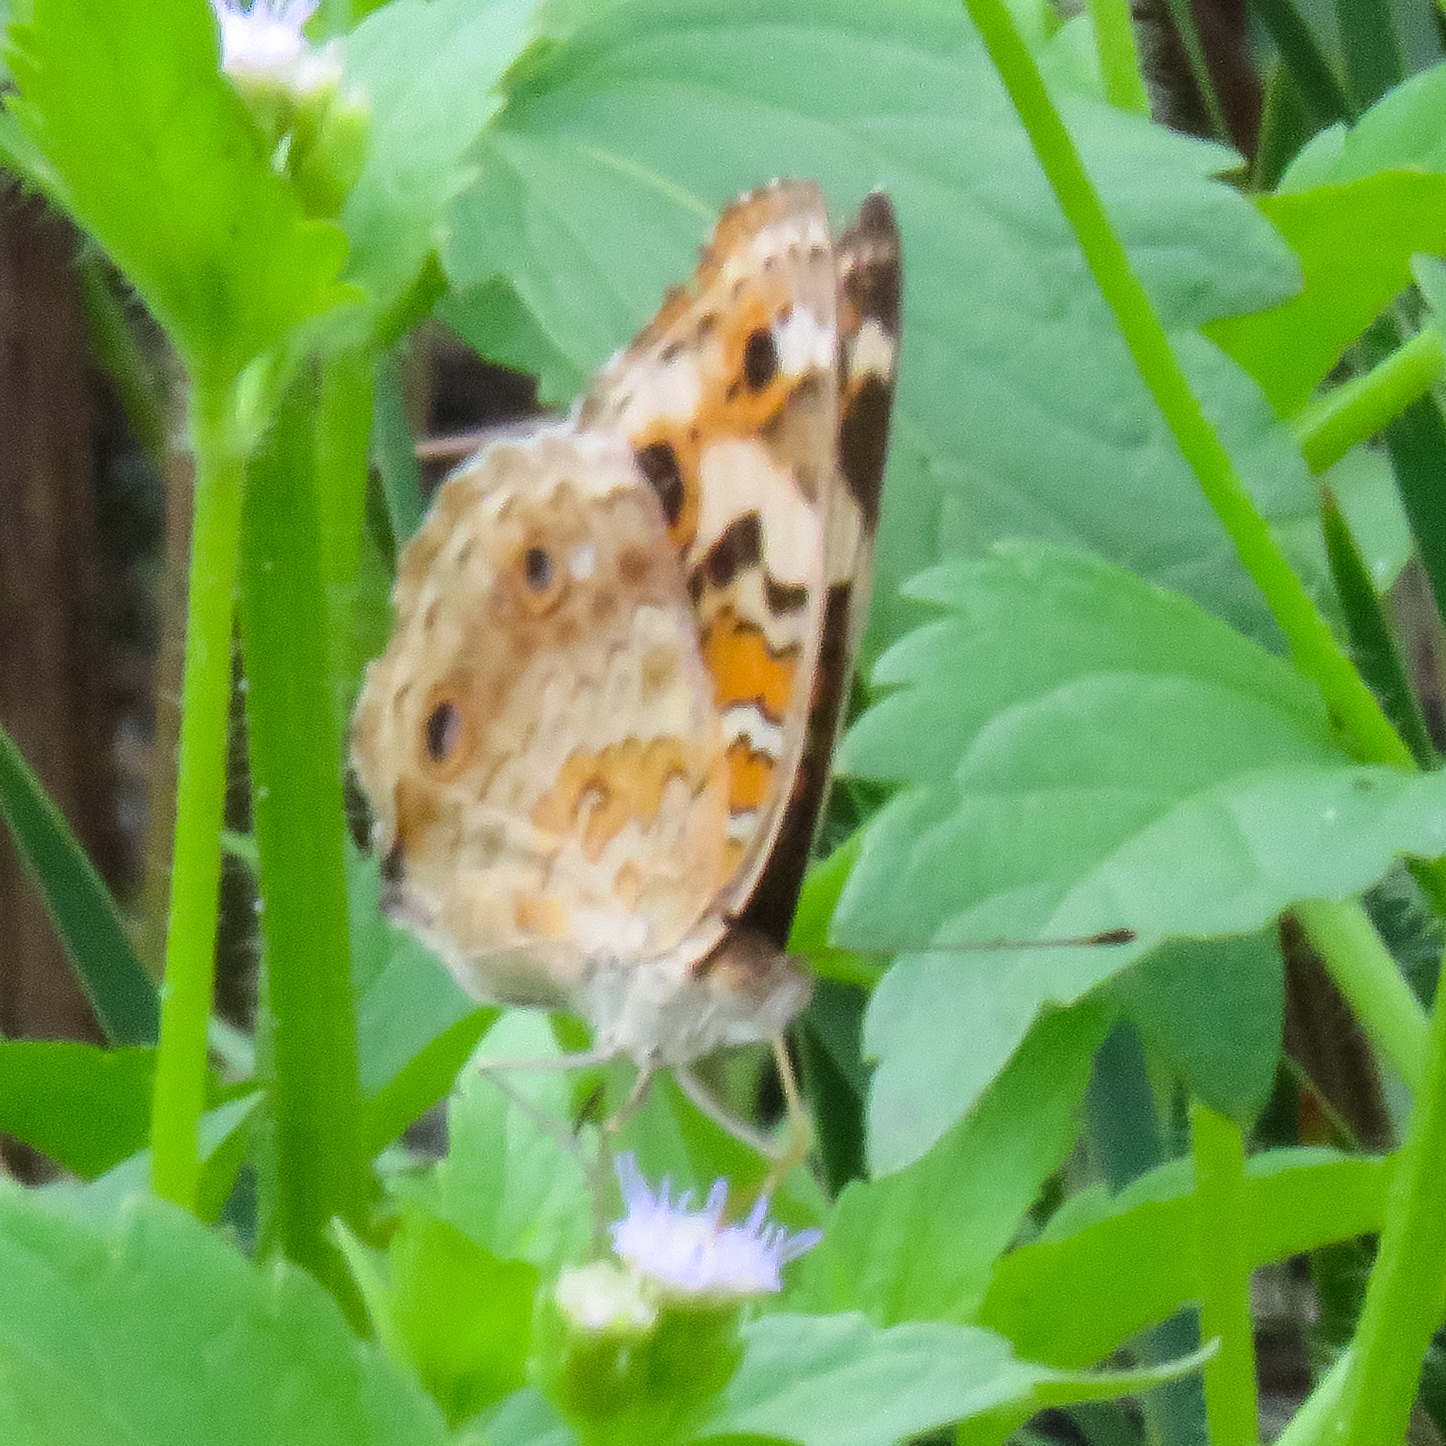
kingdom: Animalia
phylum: Arthropoda
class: Insecta
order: Lepidoptera
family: Nymphalidae
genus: Junonia
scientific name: Junonia orithya
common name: Blue pansy
